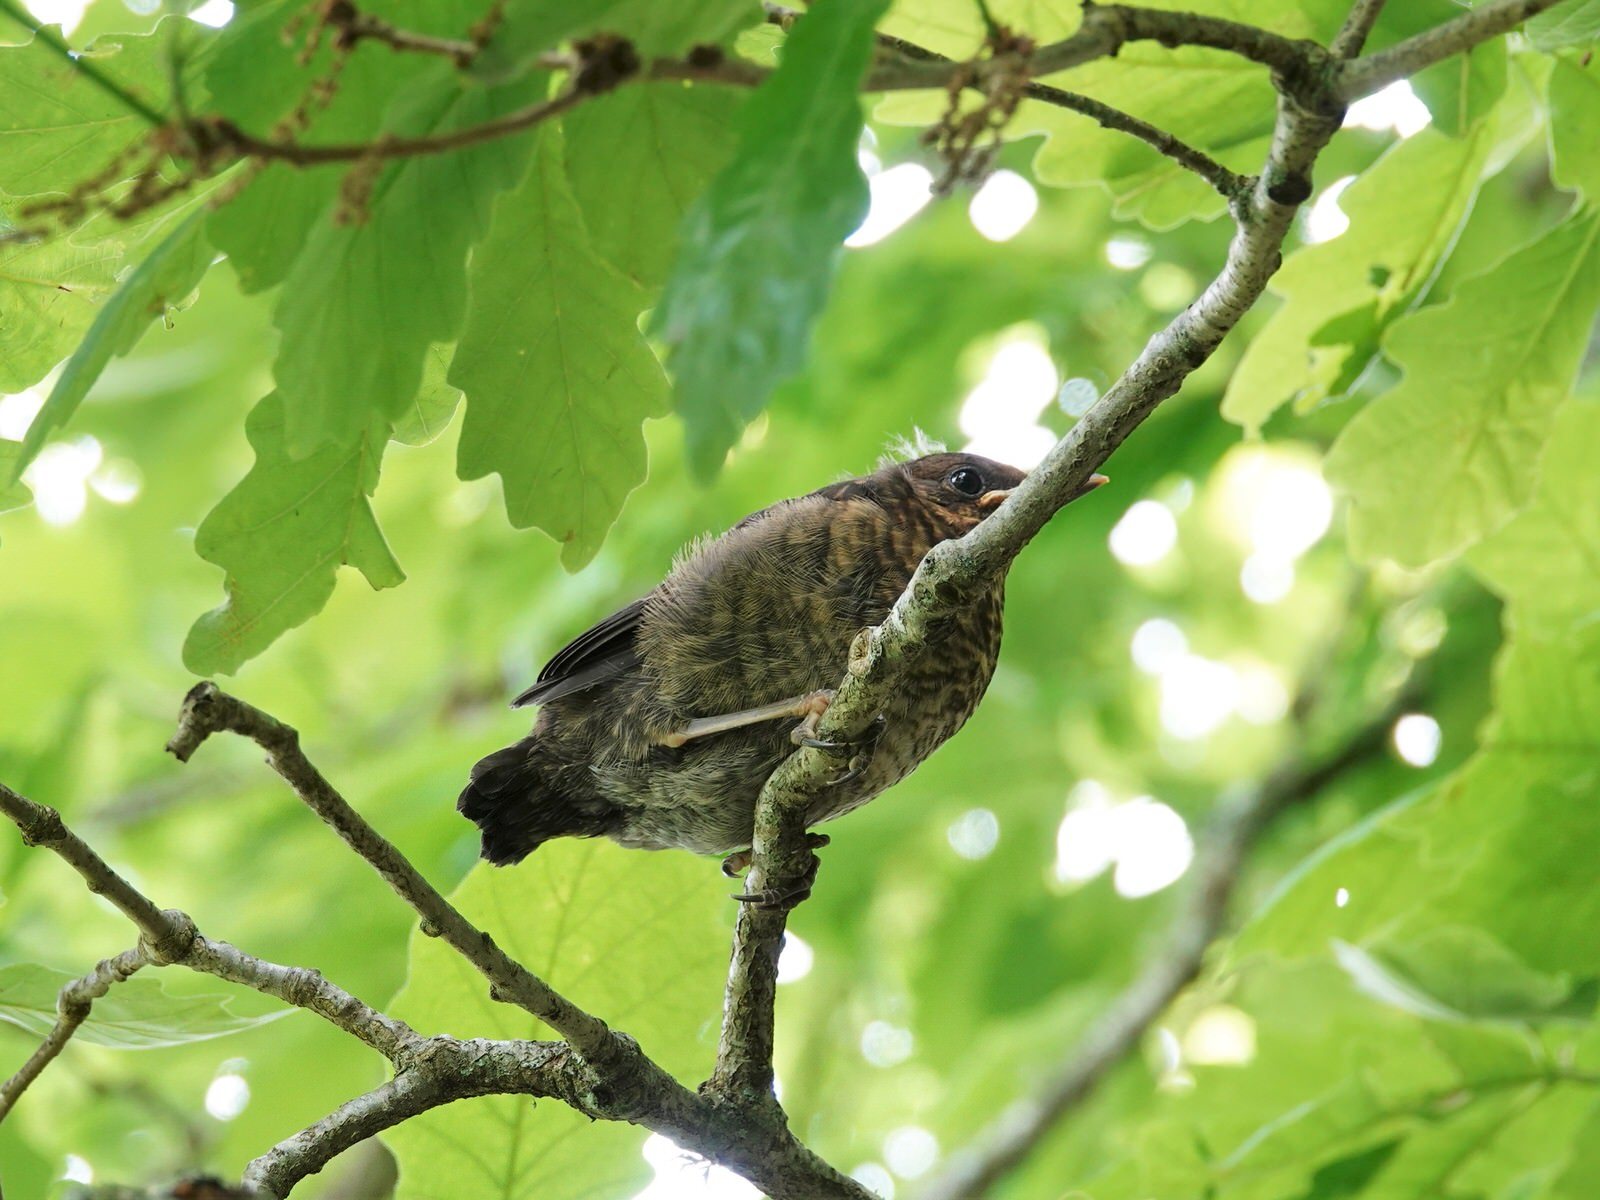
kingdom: Animalia
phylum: Chordata
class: Aves
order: Passeriformes
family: Turdidae
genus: Turdus
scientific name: Turdus merula
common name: Common blackbird
